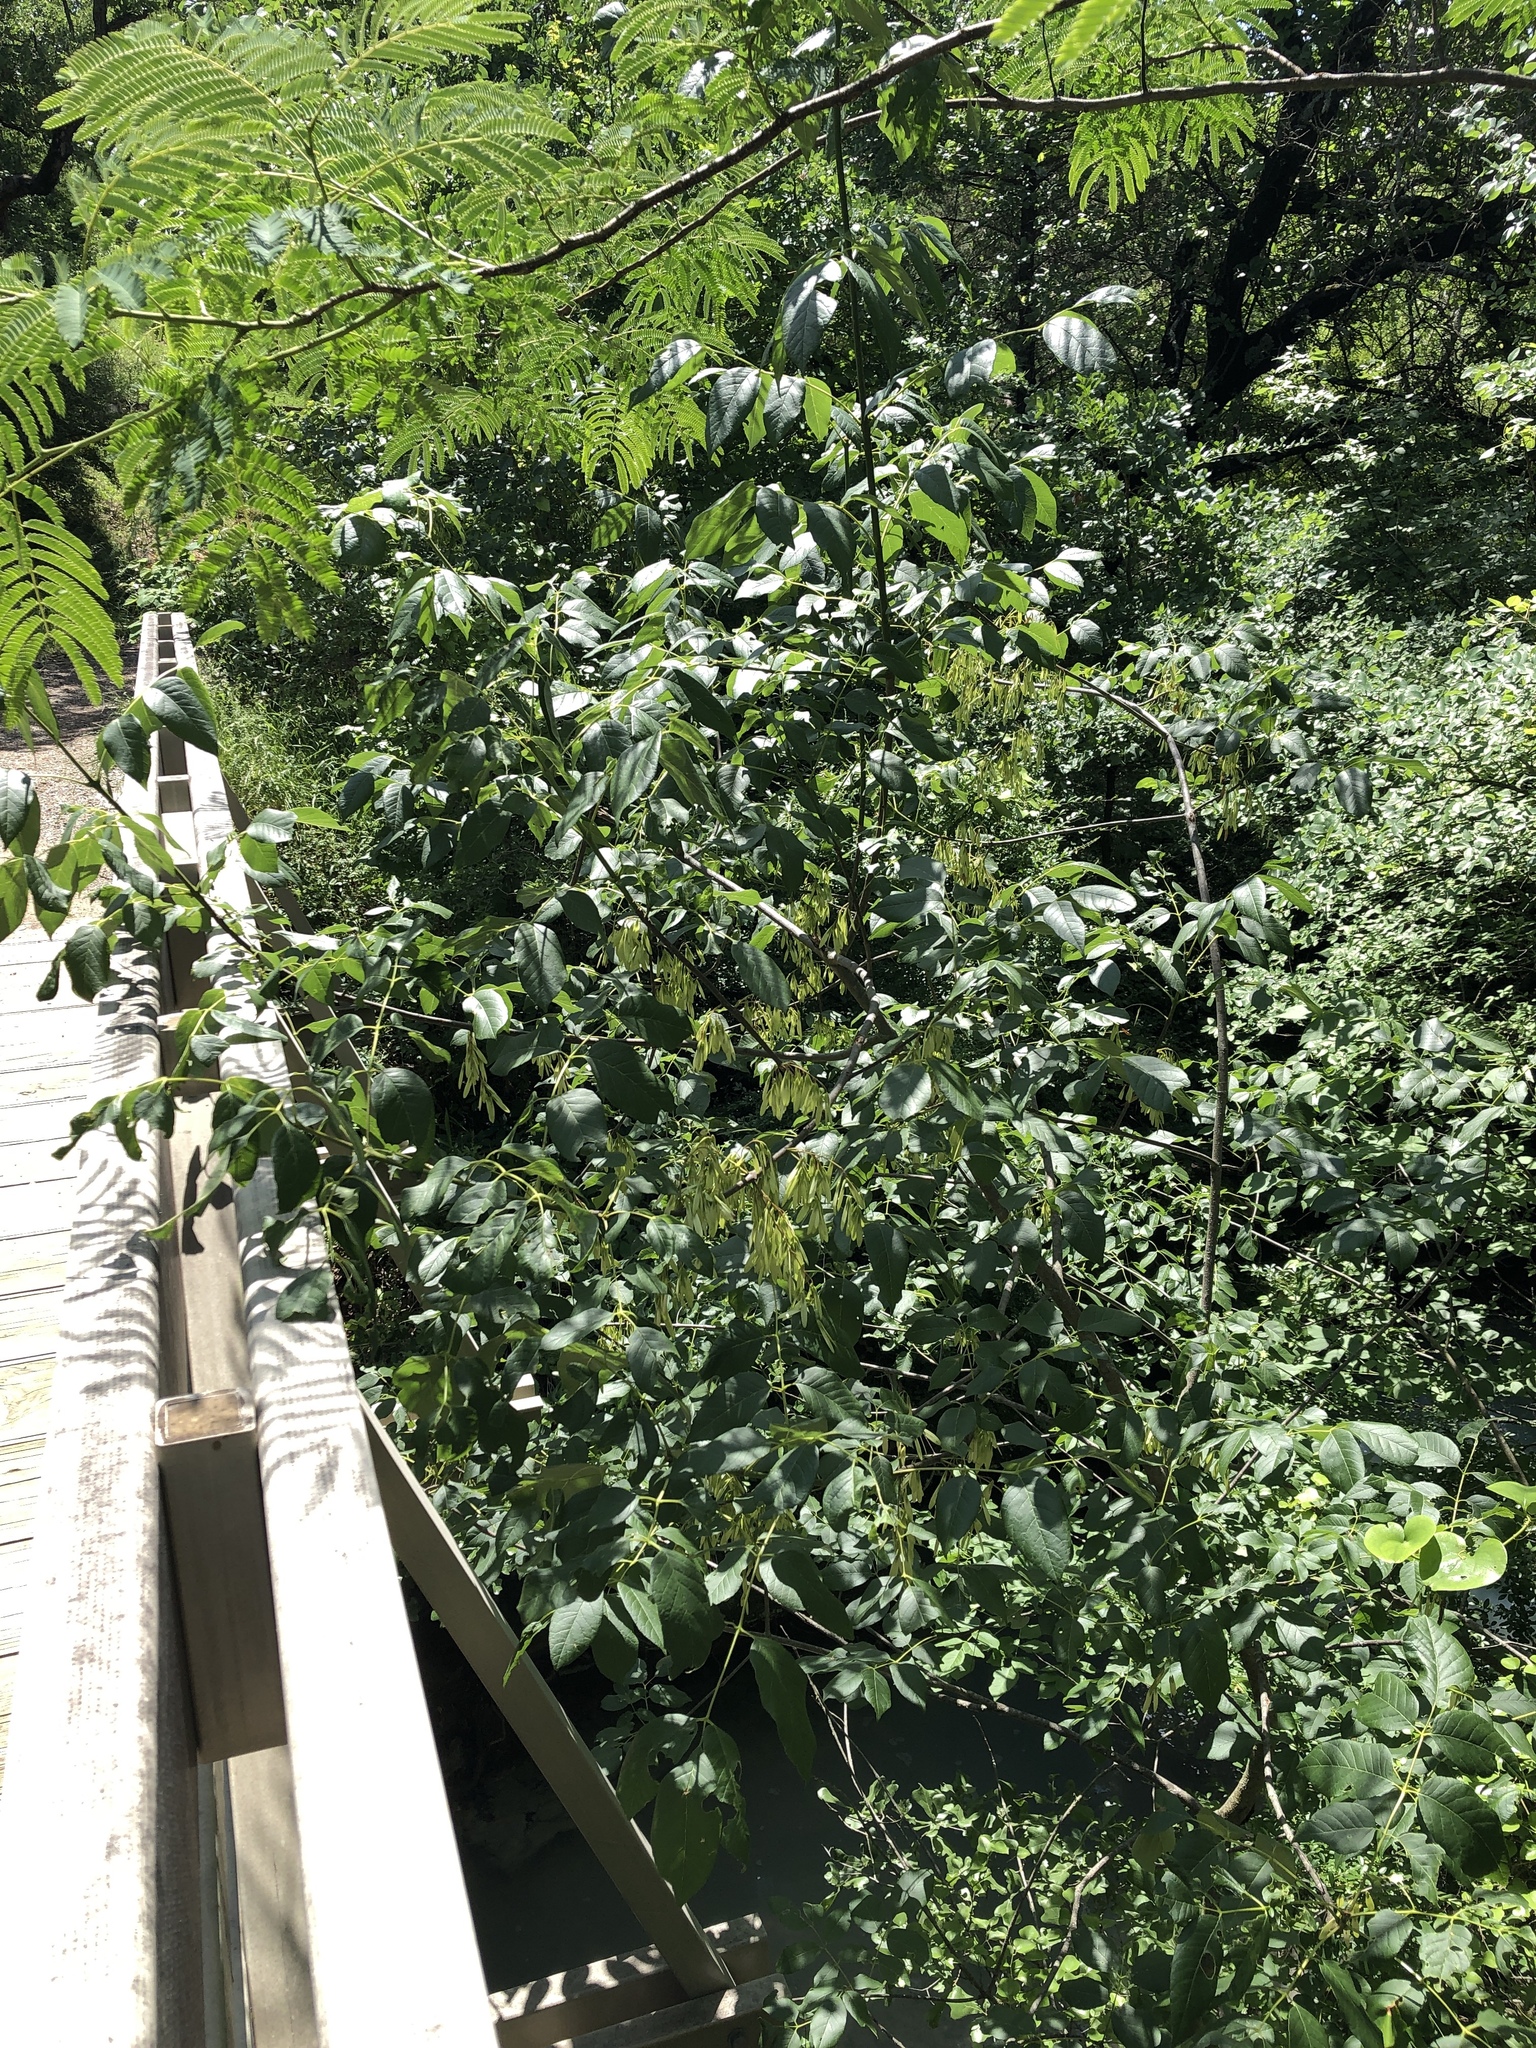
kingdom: Plantae
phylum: Tracheophyta
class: Magnoliopsida
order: Lamiales
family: Oleaceae
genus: Fraxinus
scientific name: Fraxinus pennsylvanica
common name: Green ash
